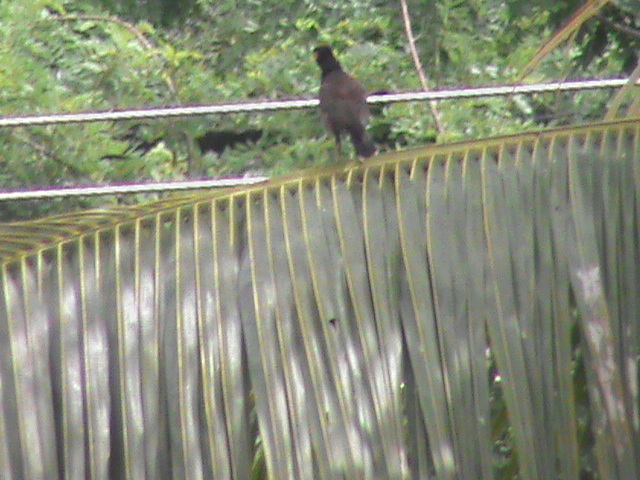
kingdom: Animalia
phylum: Chordata
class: Aves
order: Passeriformes
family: Sturnidae
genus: Acridotheres
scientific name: Acridotheres tristis
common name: Common myna
